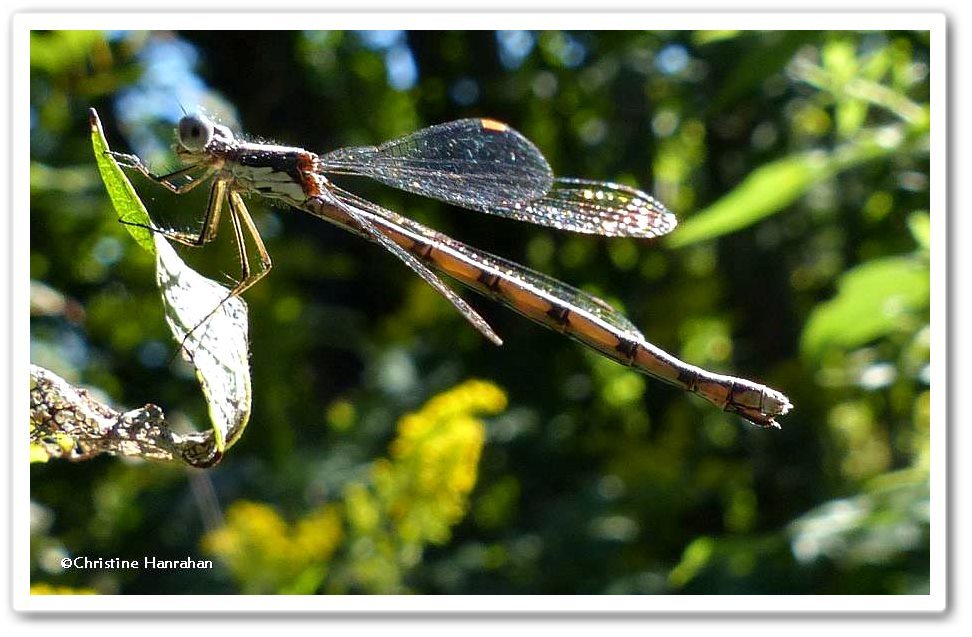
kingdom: Animalia
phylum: Arthropoda
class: Insecta
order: Odonata
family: Lestidae
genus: Lestes
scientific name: Lestes congener
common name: Spotted spreadwing
